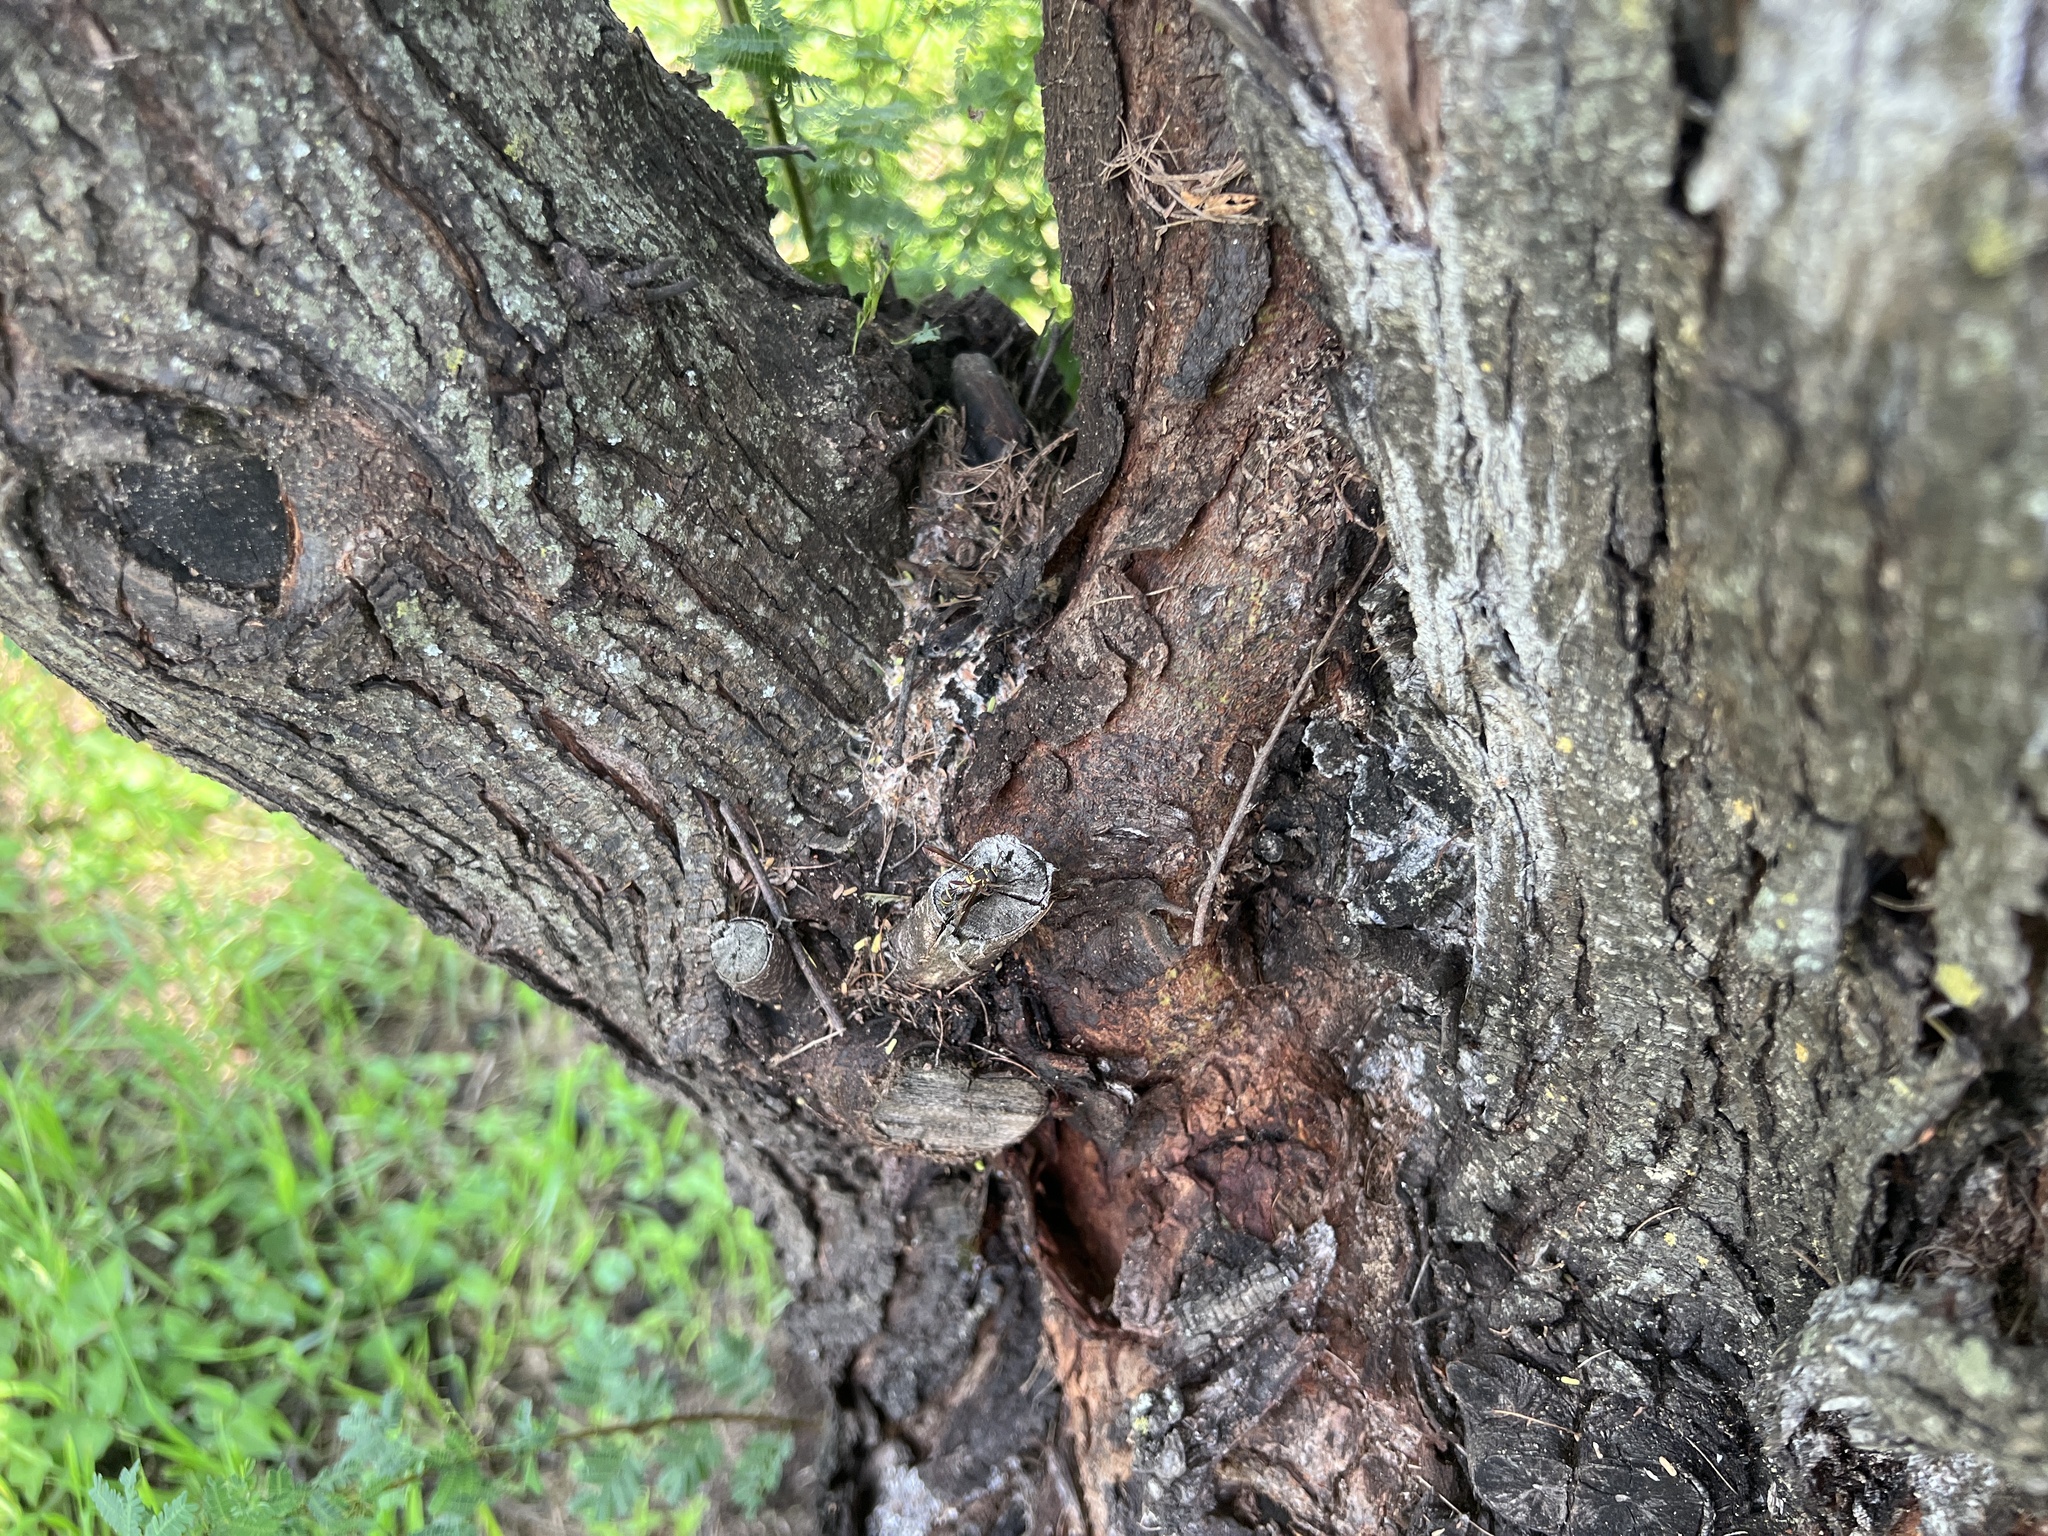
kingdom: Animalia
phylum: Arthropoda
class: Insecta
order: Diptera
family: Syrphidae
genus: Polybiomyia
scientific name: Polybiomyia macquarti
